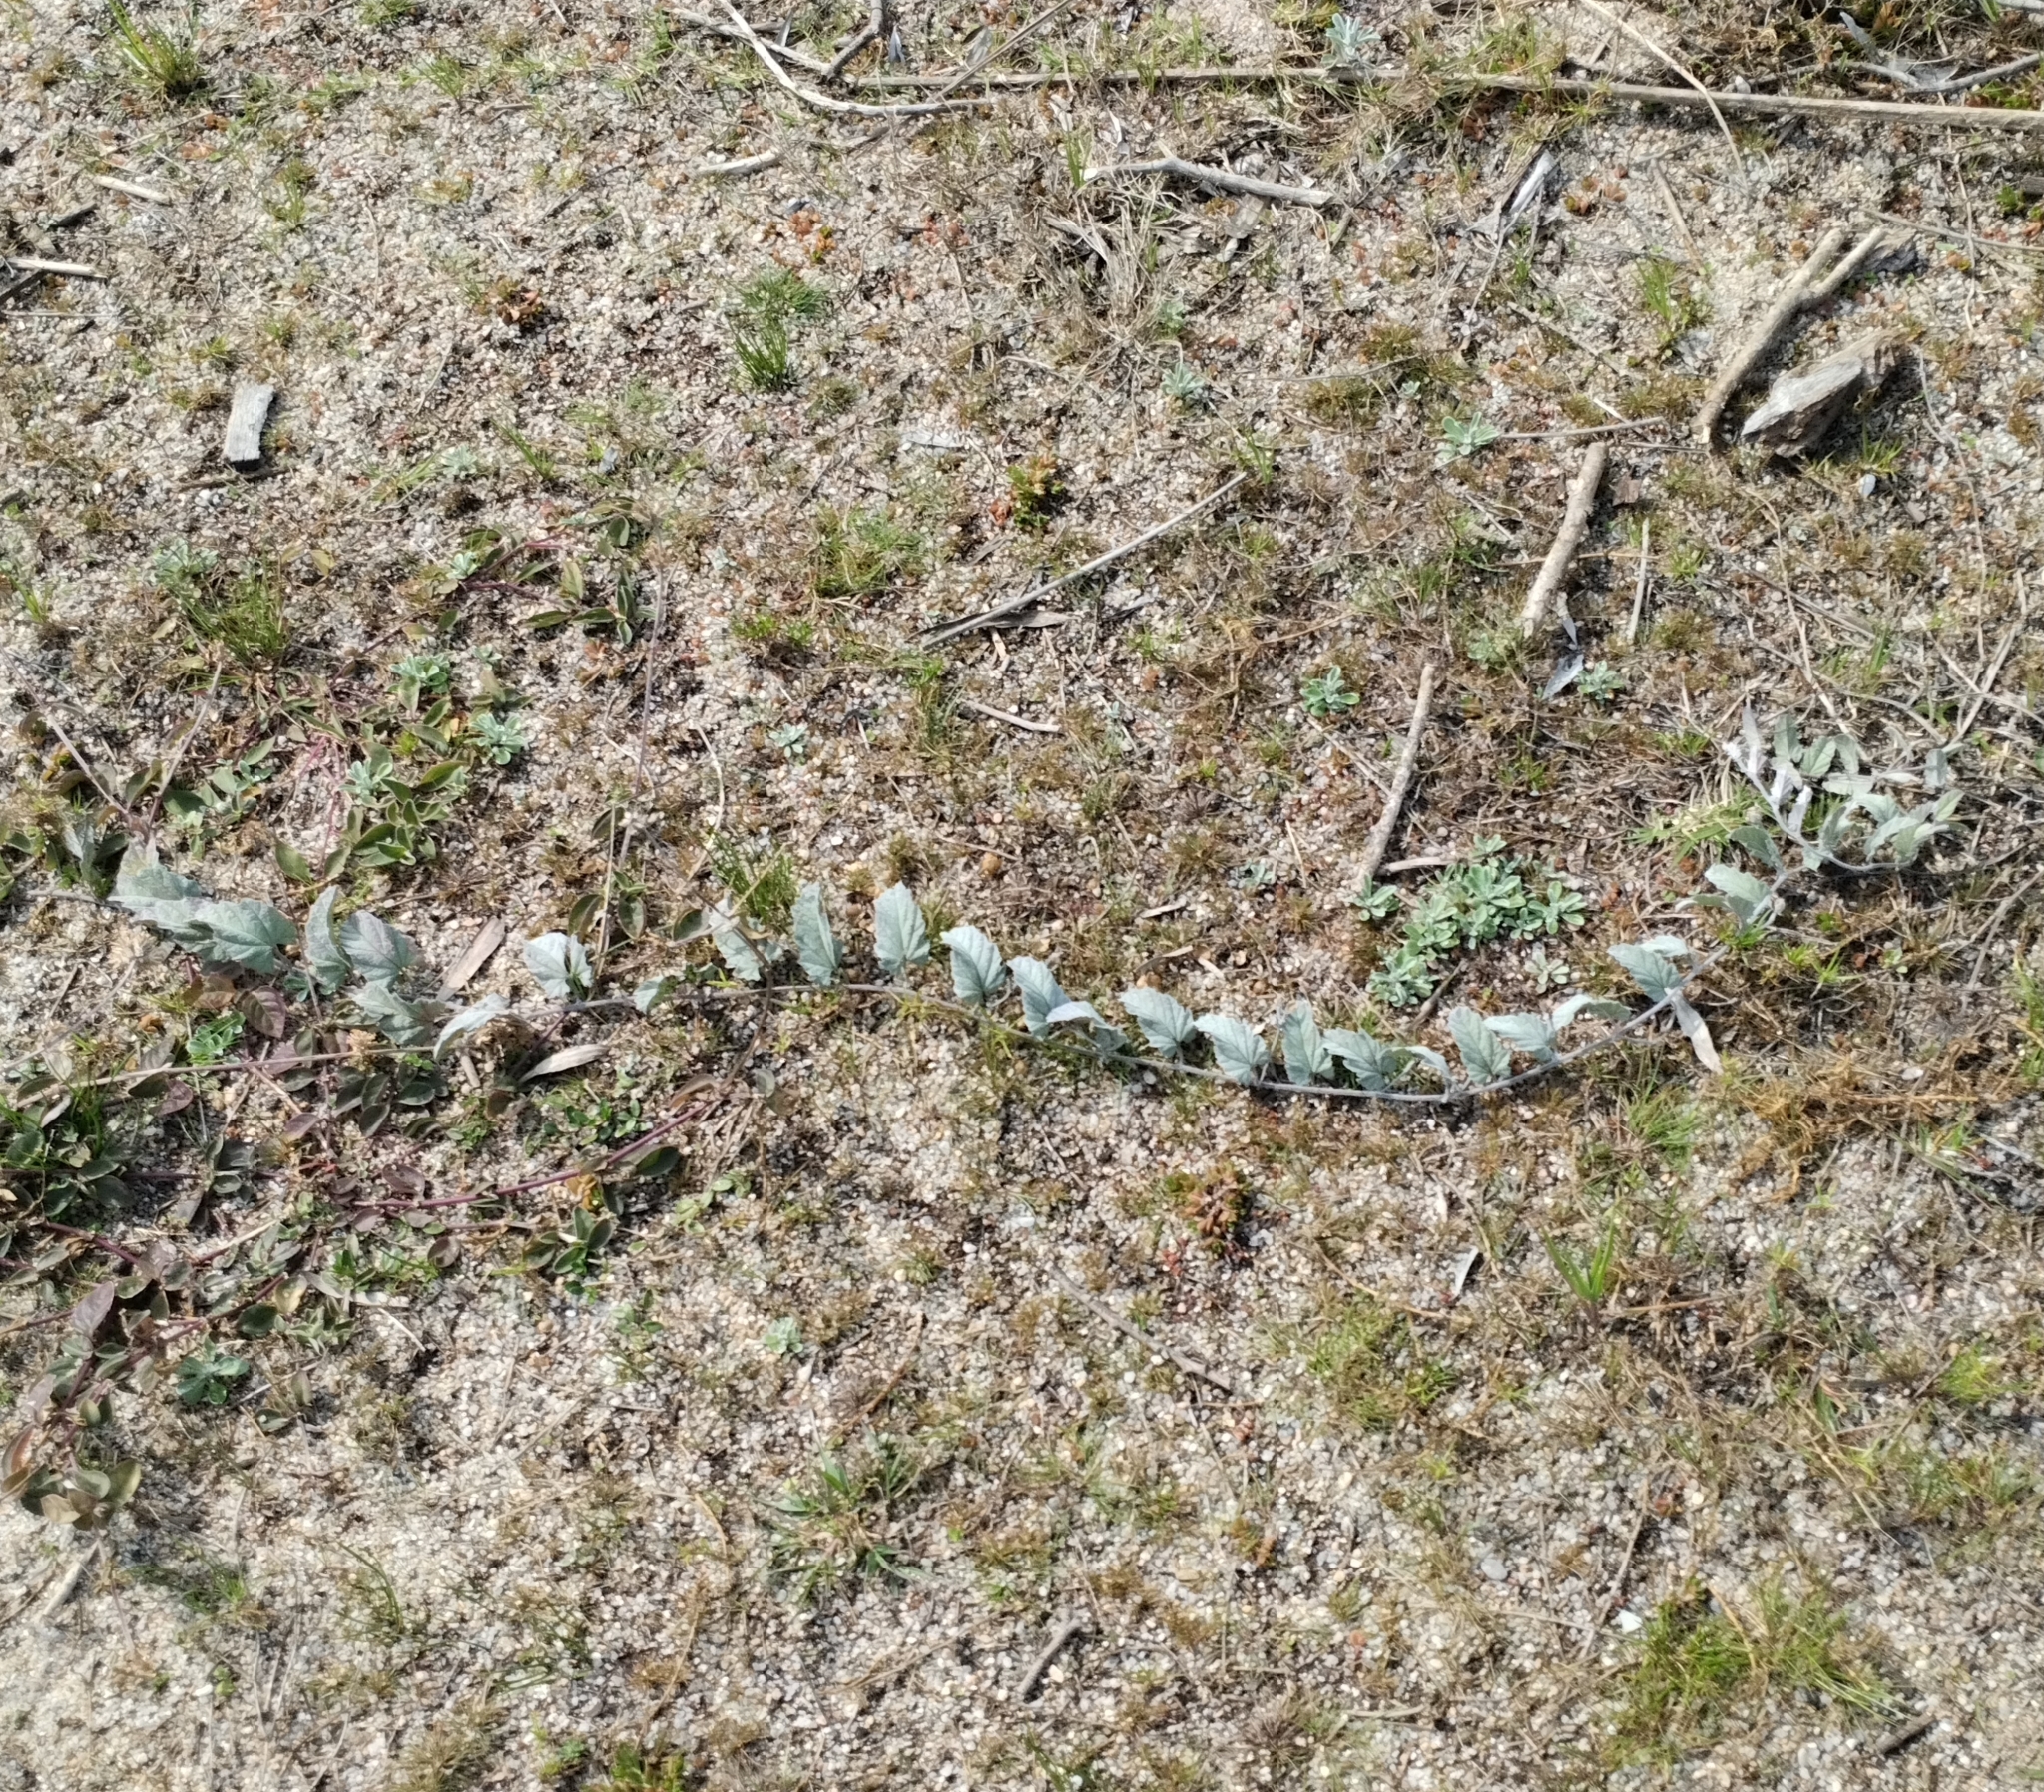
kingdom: Plantae
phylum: Tracheophyta
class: Magnoliopsida
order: Solanales
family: Convolvulaceae
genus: Convolvulus
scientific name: Convolvulus hermanniae
